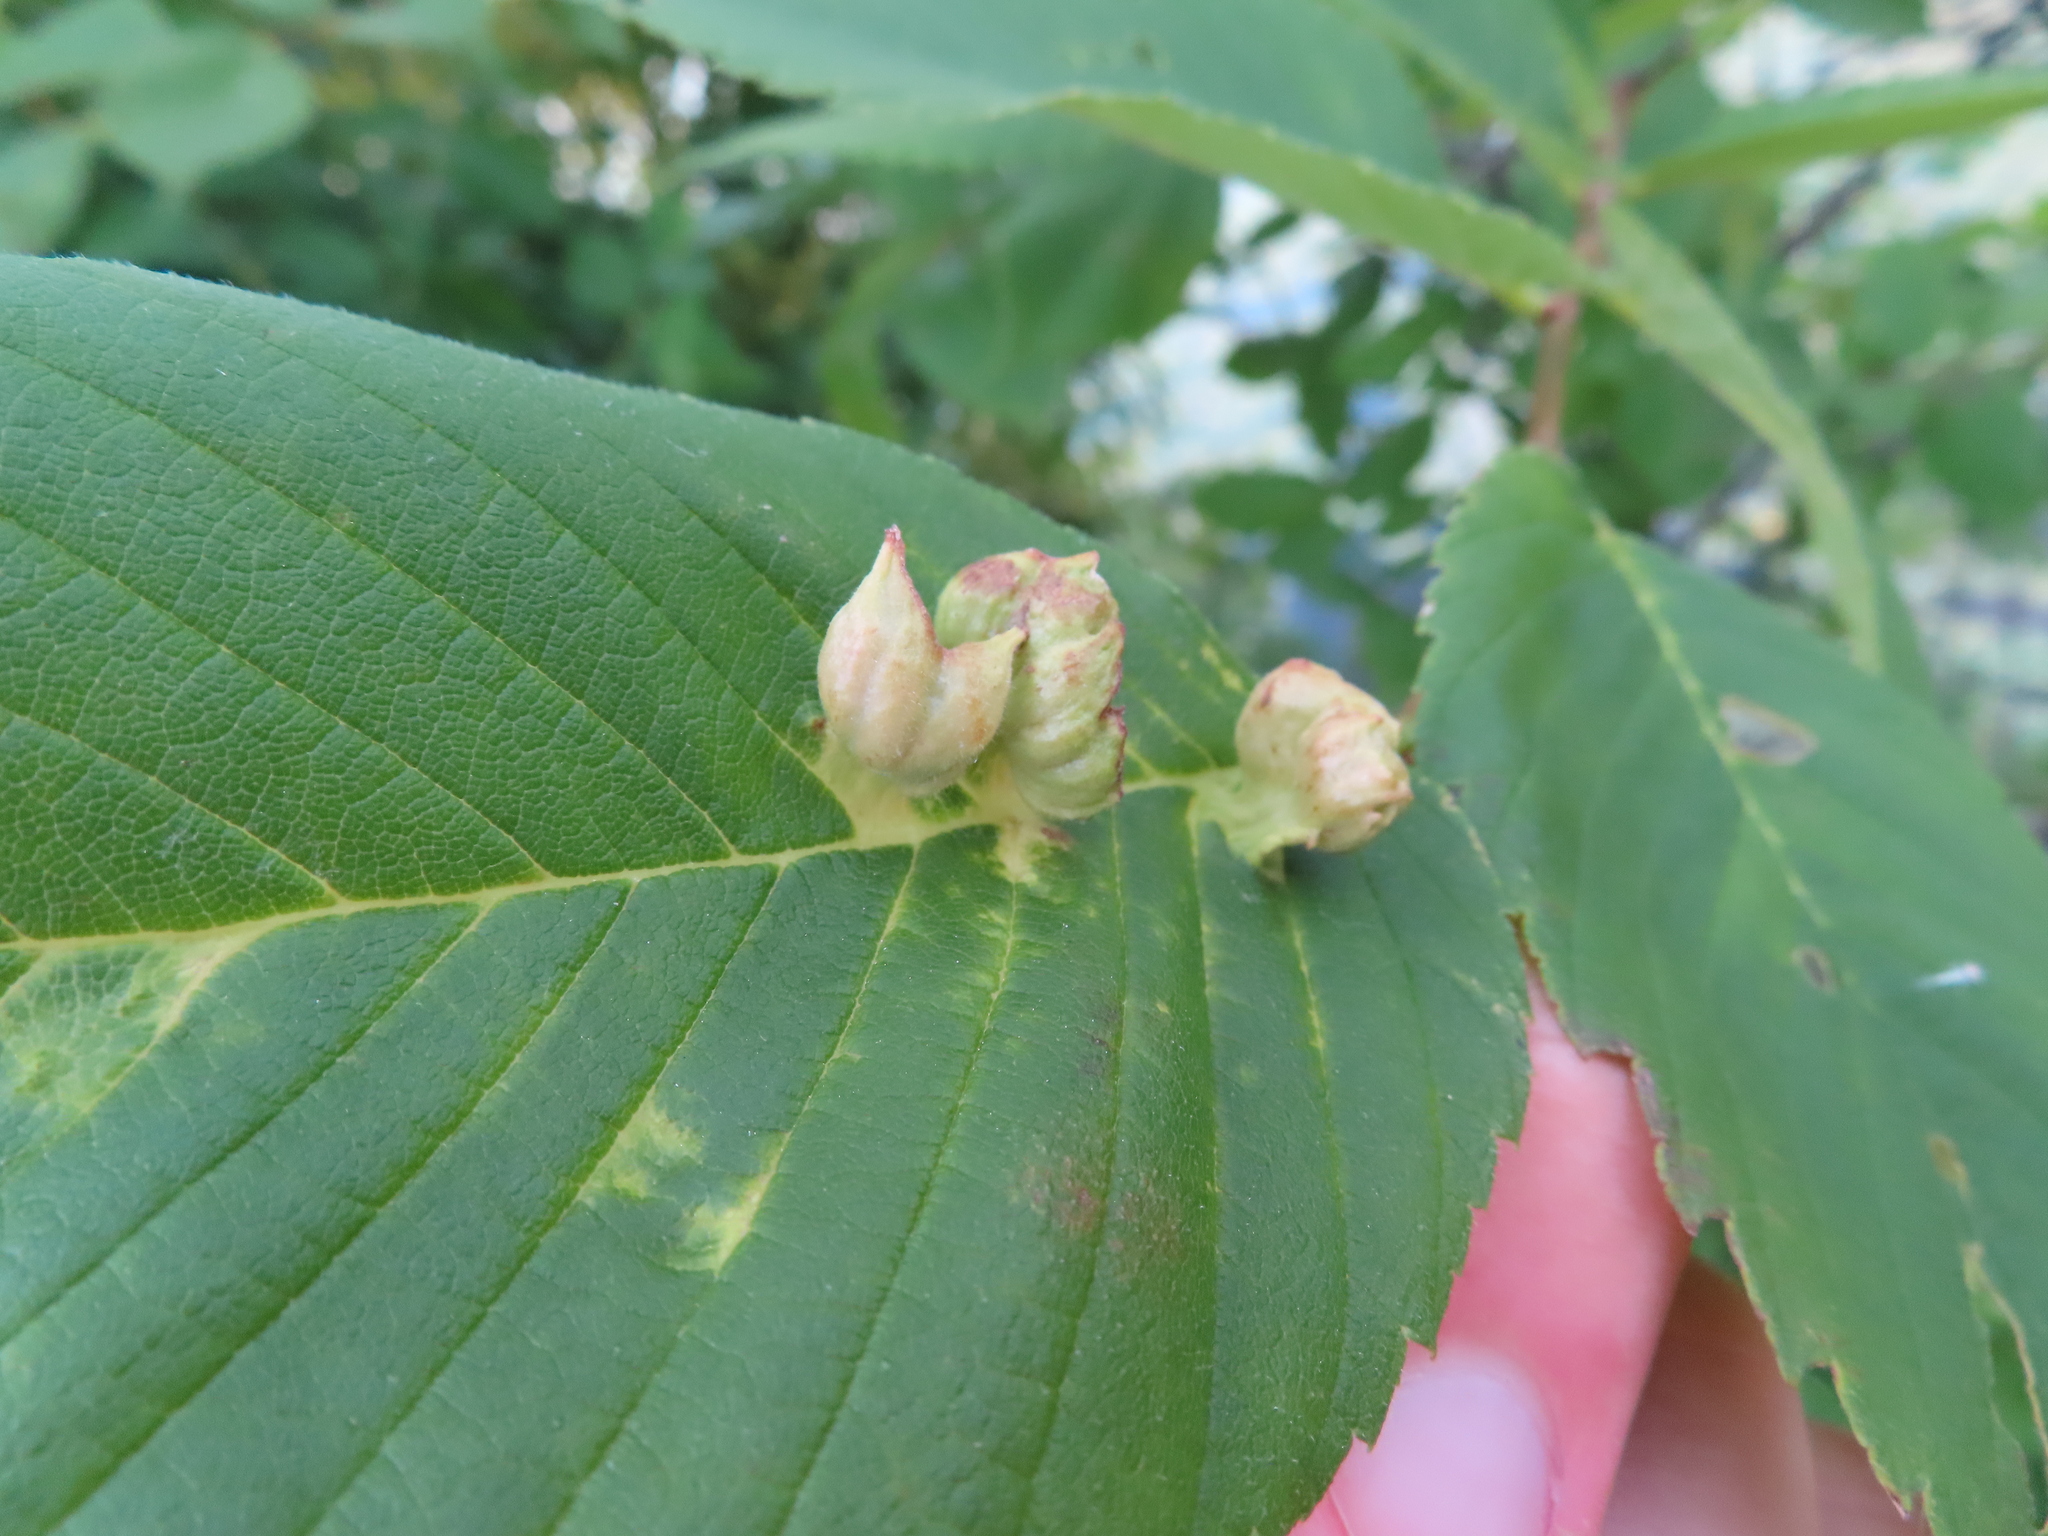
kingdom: Animalia
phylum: Arthropoda
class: Insecta
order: Hemiptera
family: Aphididae
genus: Colopha
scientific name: Colopha ulmicola
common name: Elm cockscombgall aphid
